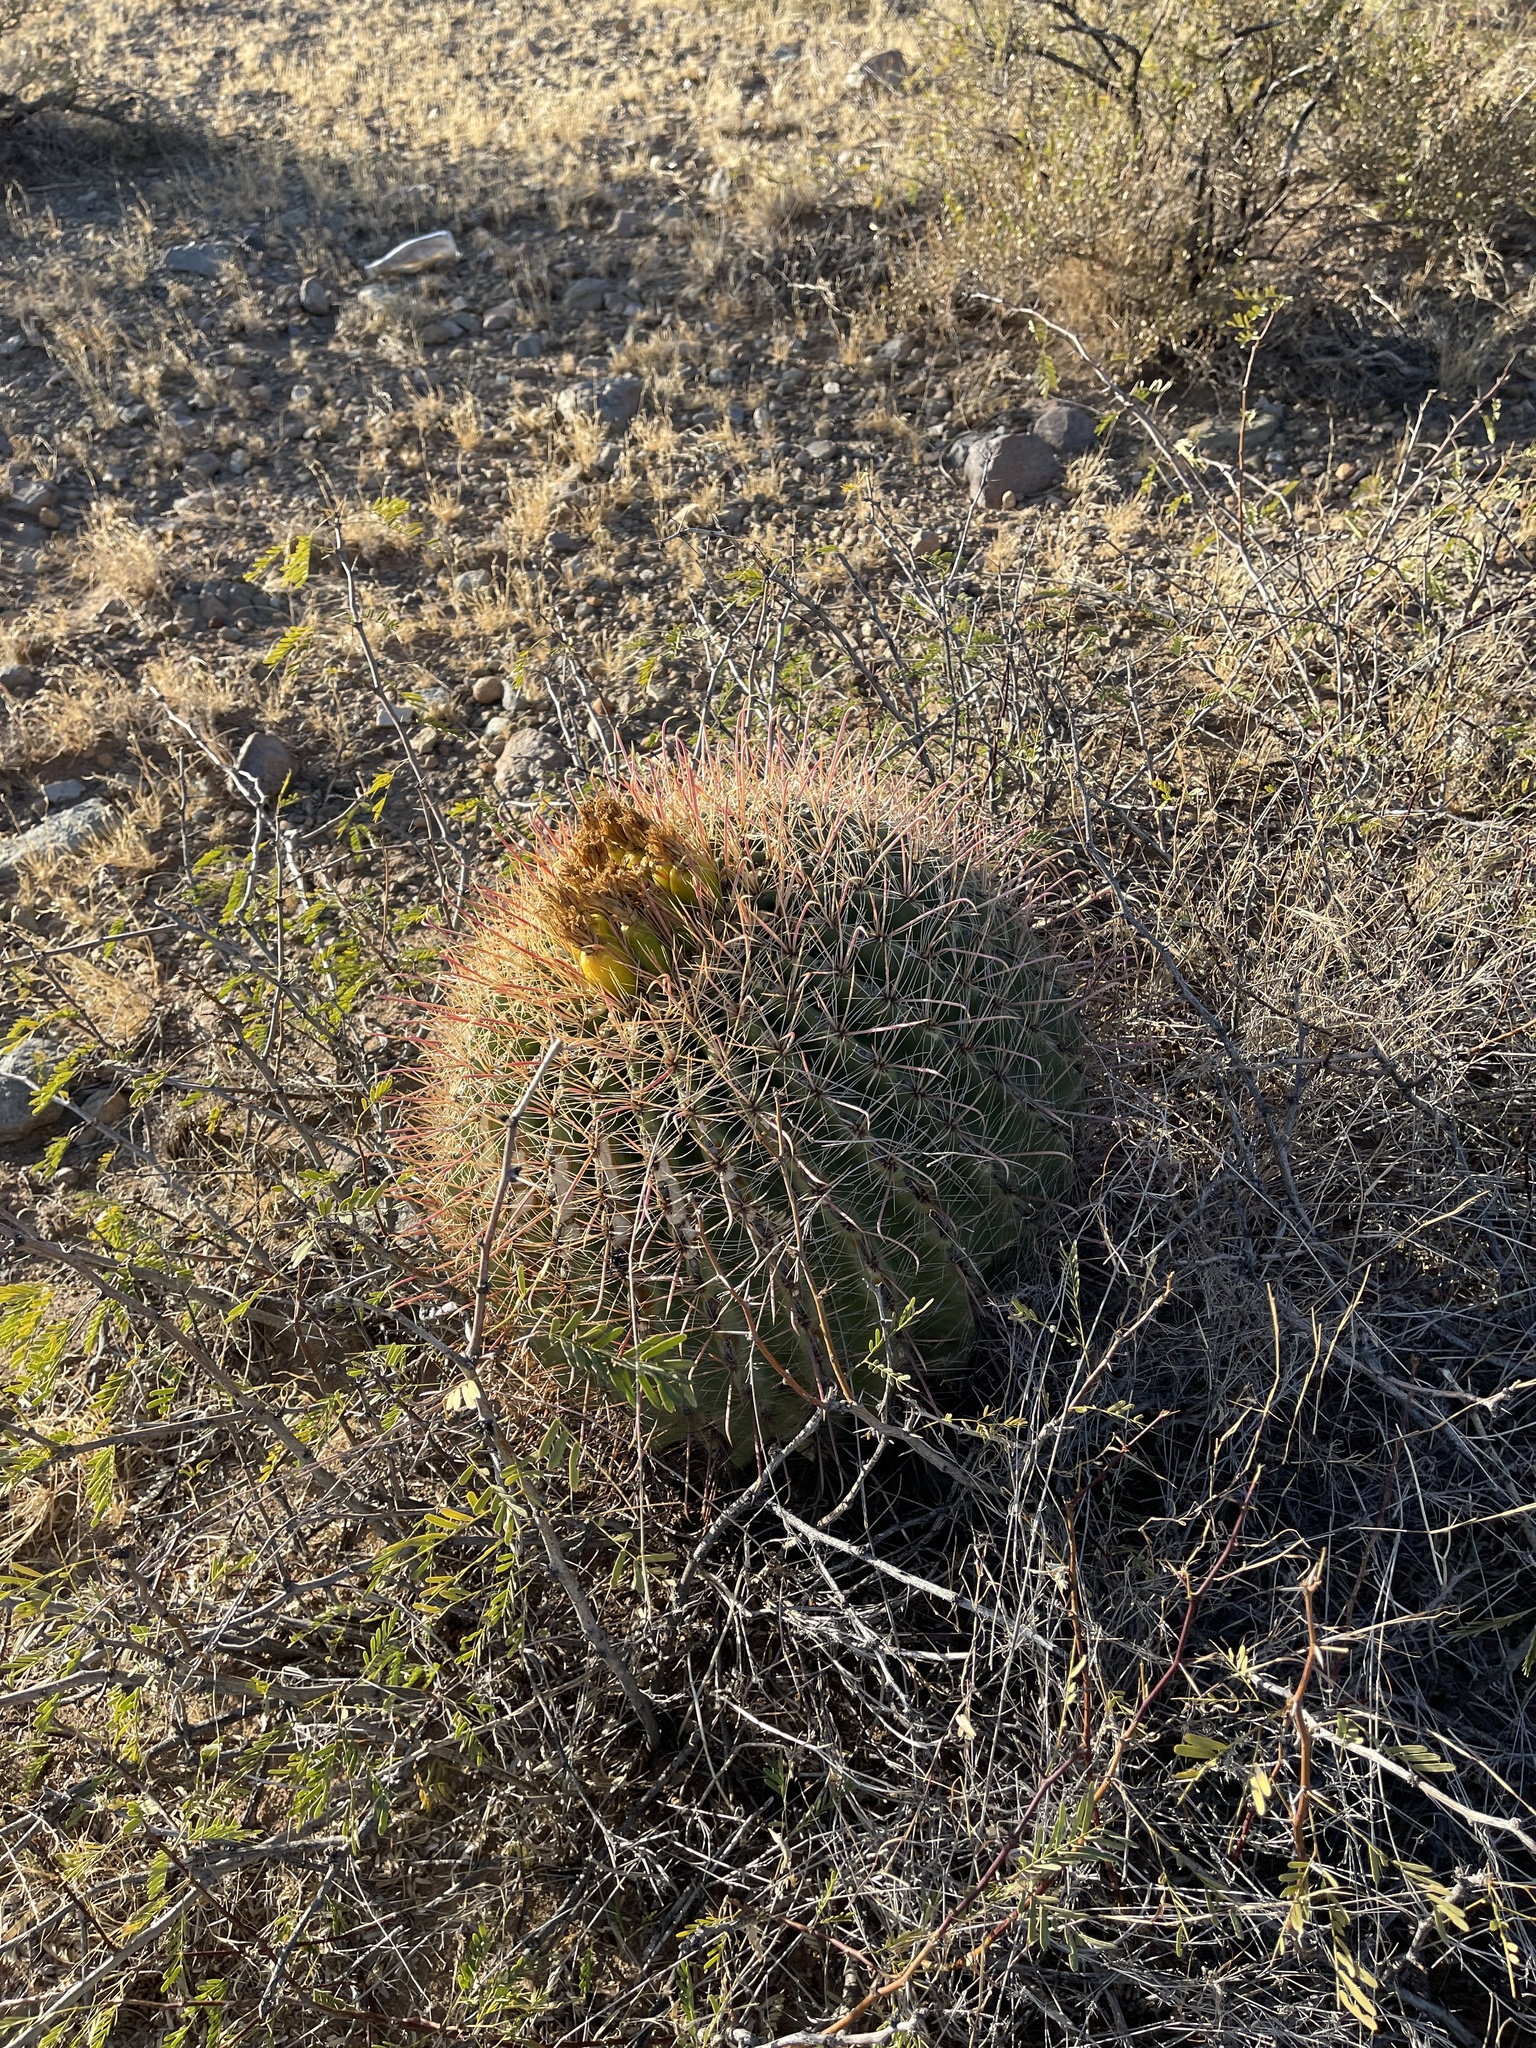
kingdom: Plantae
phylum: Tracheophyta
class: Magnoliopsida
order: Caryophyllales
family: Cactaceae
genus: Ferocactus
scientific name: Ferocactus wislizeni
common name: Candy barrel cactus
